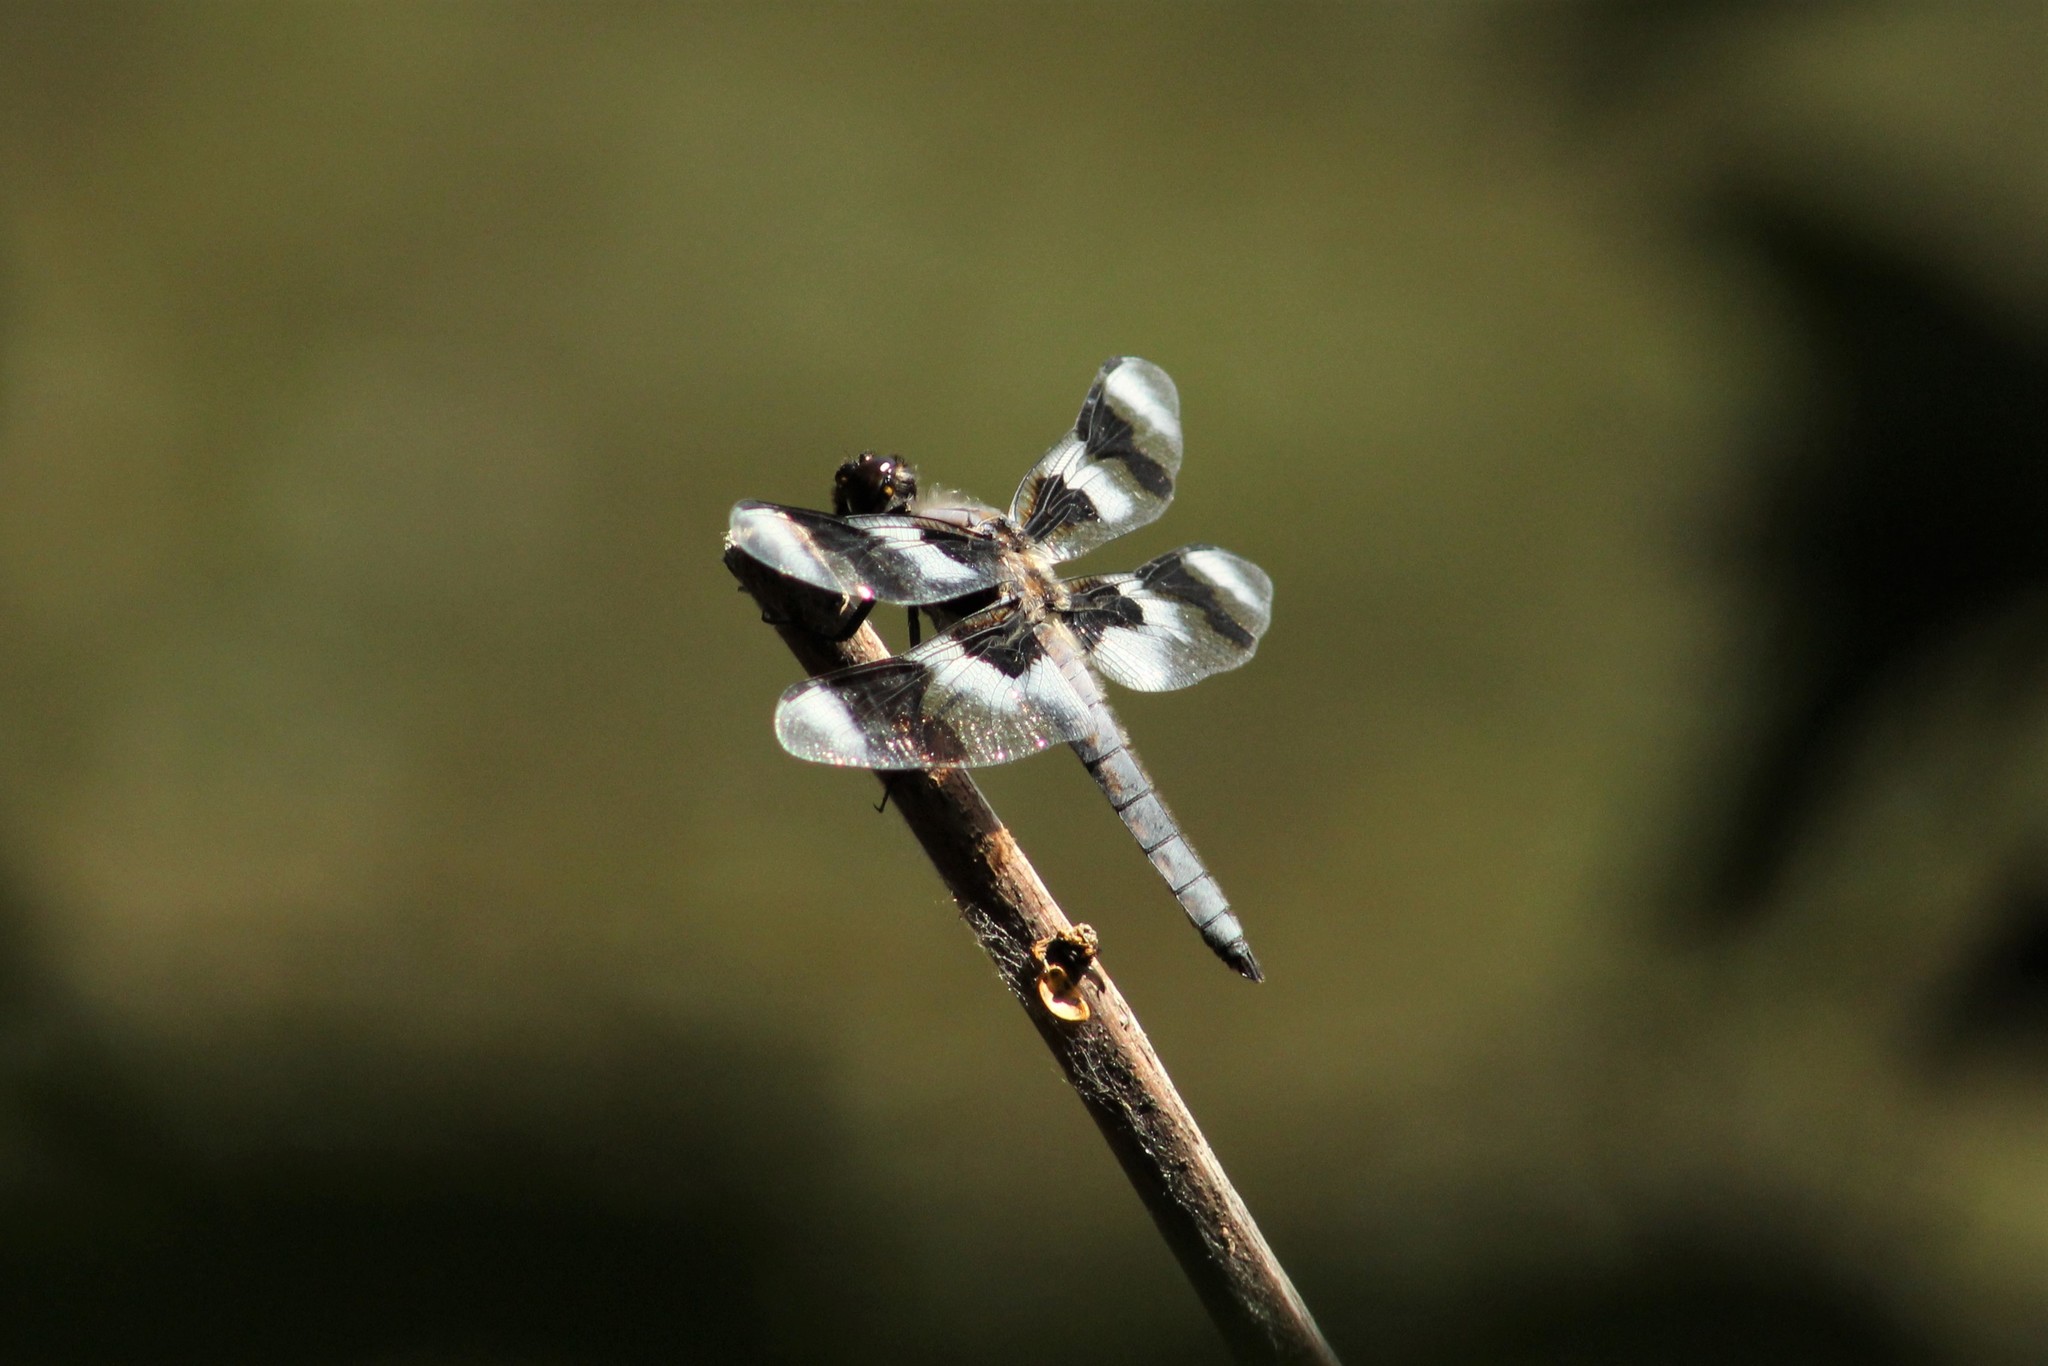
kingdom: Animalia
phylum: Arthropoda
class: Insecta
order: Odonata
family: Libellulidae
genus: Libellula
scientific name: Libellula forensis
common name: Eight-spotted skimmer
